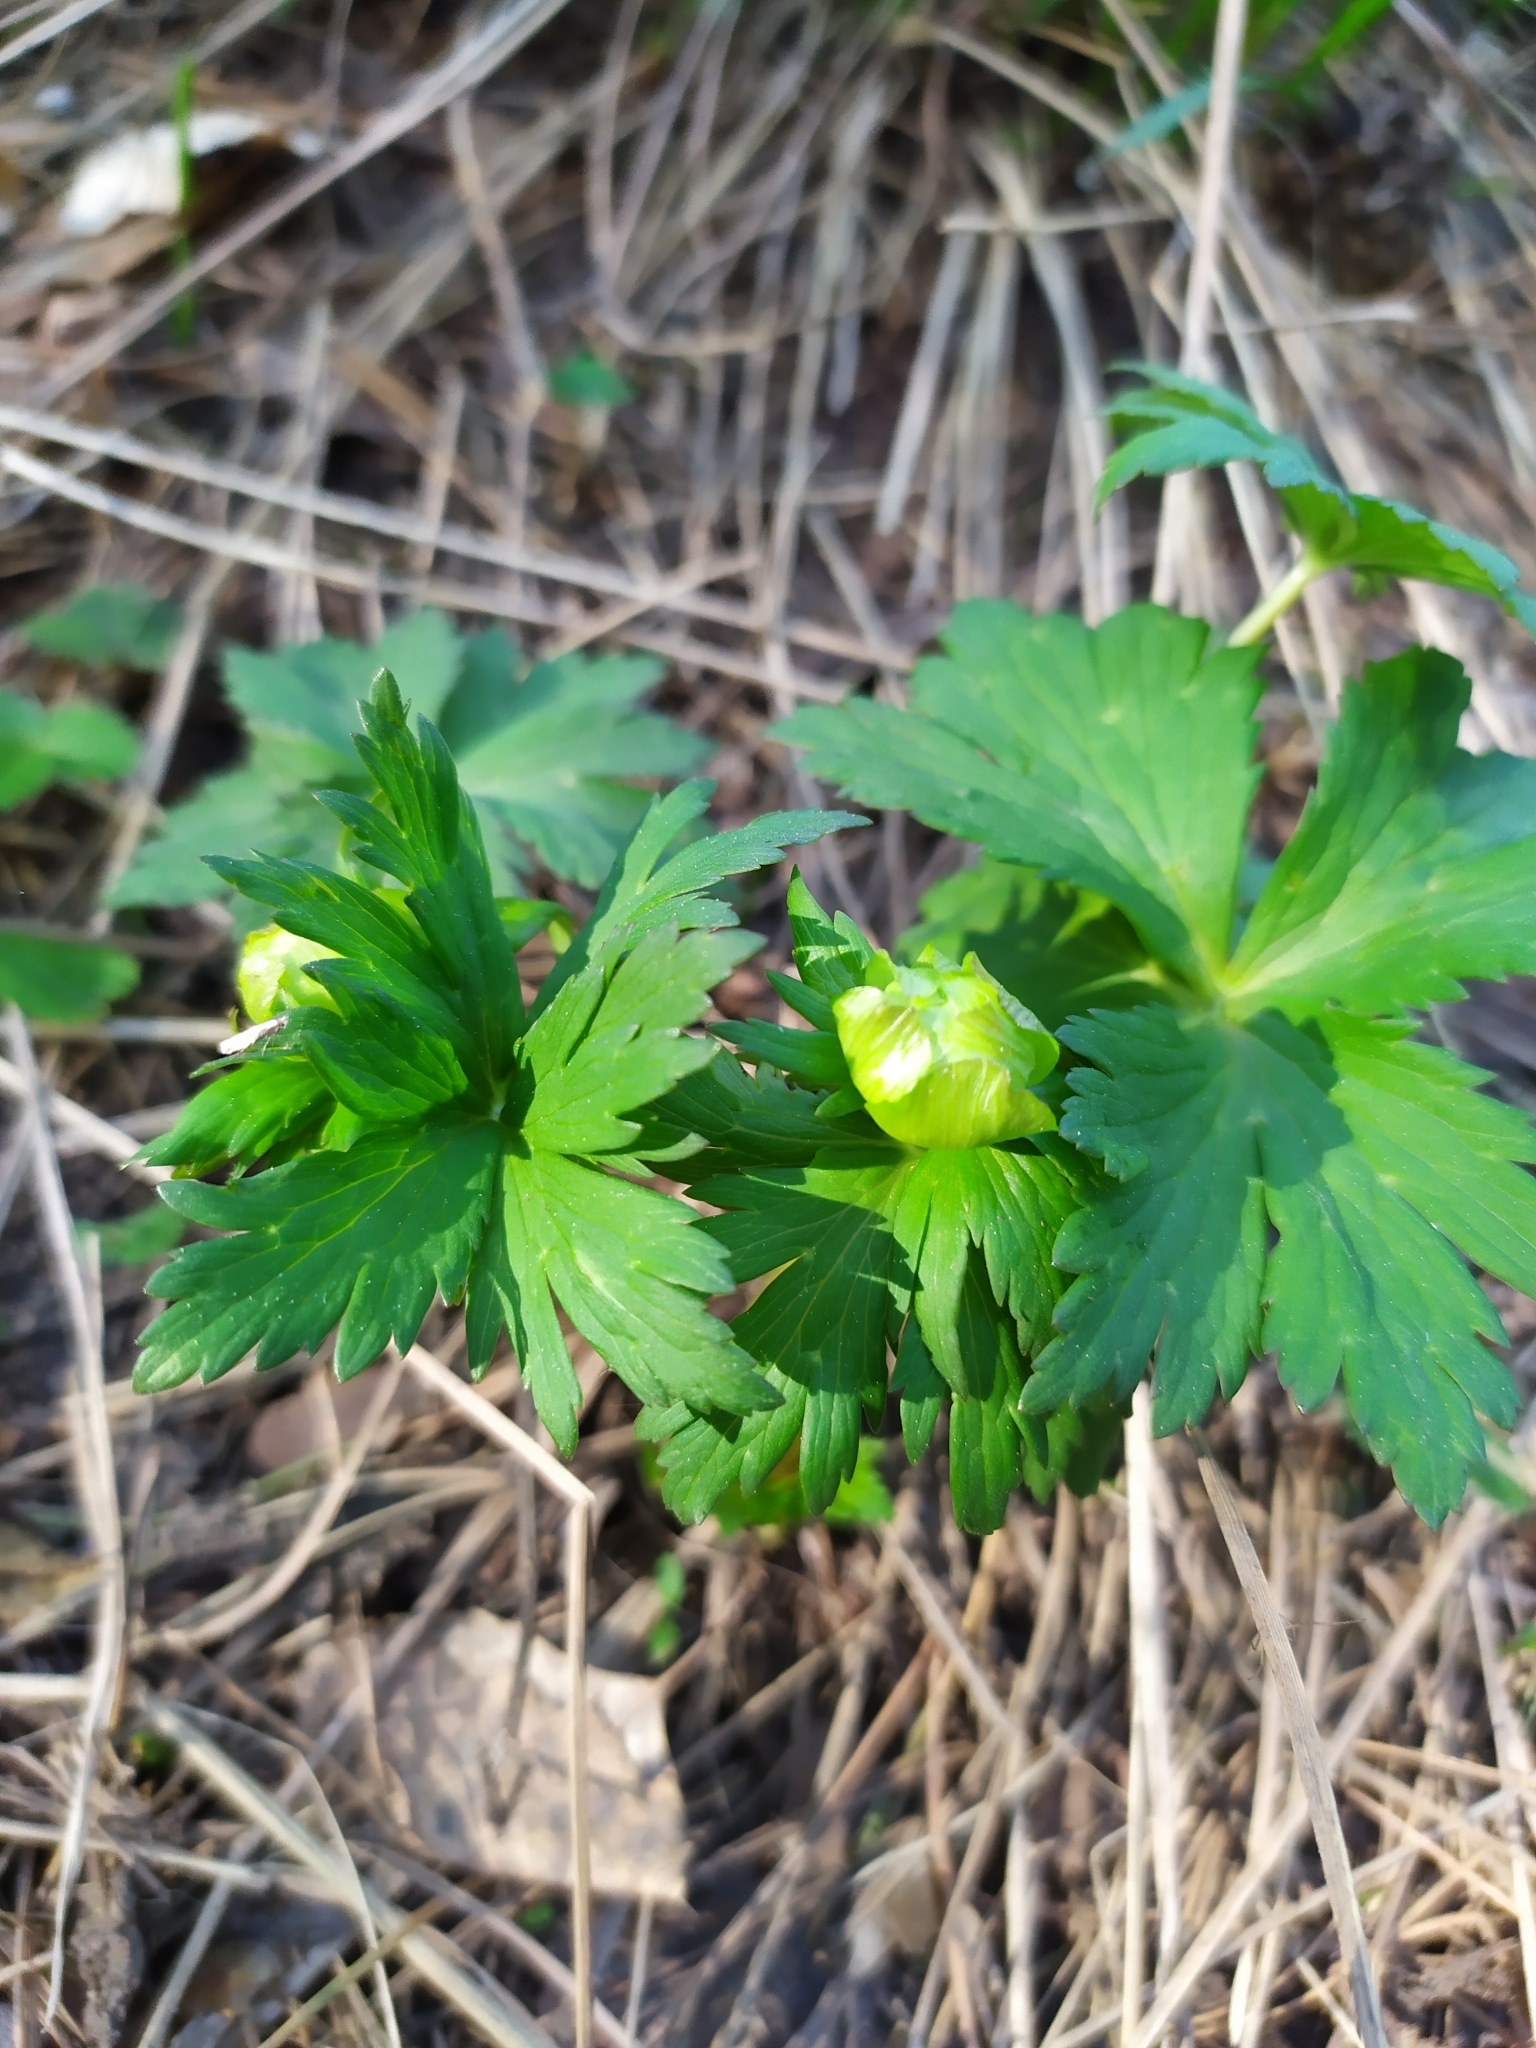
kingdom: Plantae
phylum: Tracheophyta
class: Magnoliopsida
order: Ranunculales
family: Ranunculaceae
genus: Trollius
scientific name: Trollius europaeus
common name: European globeflower
